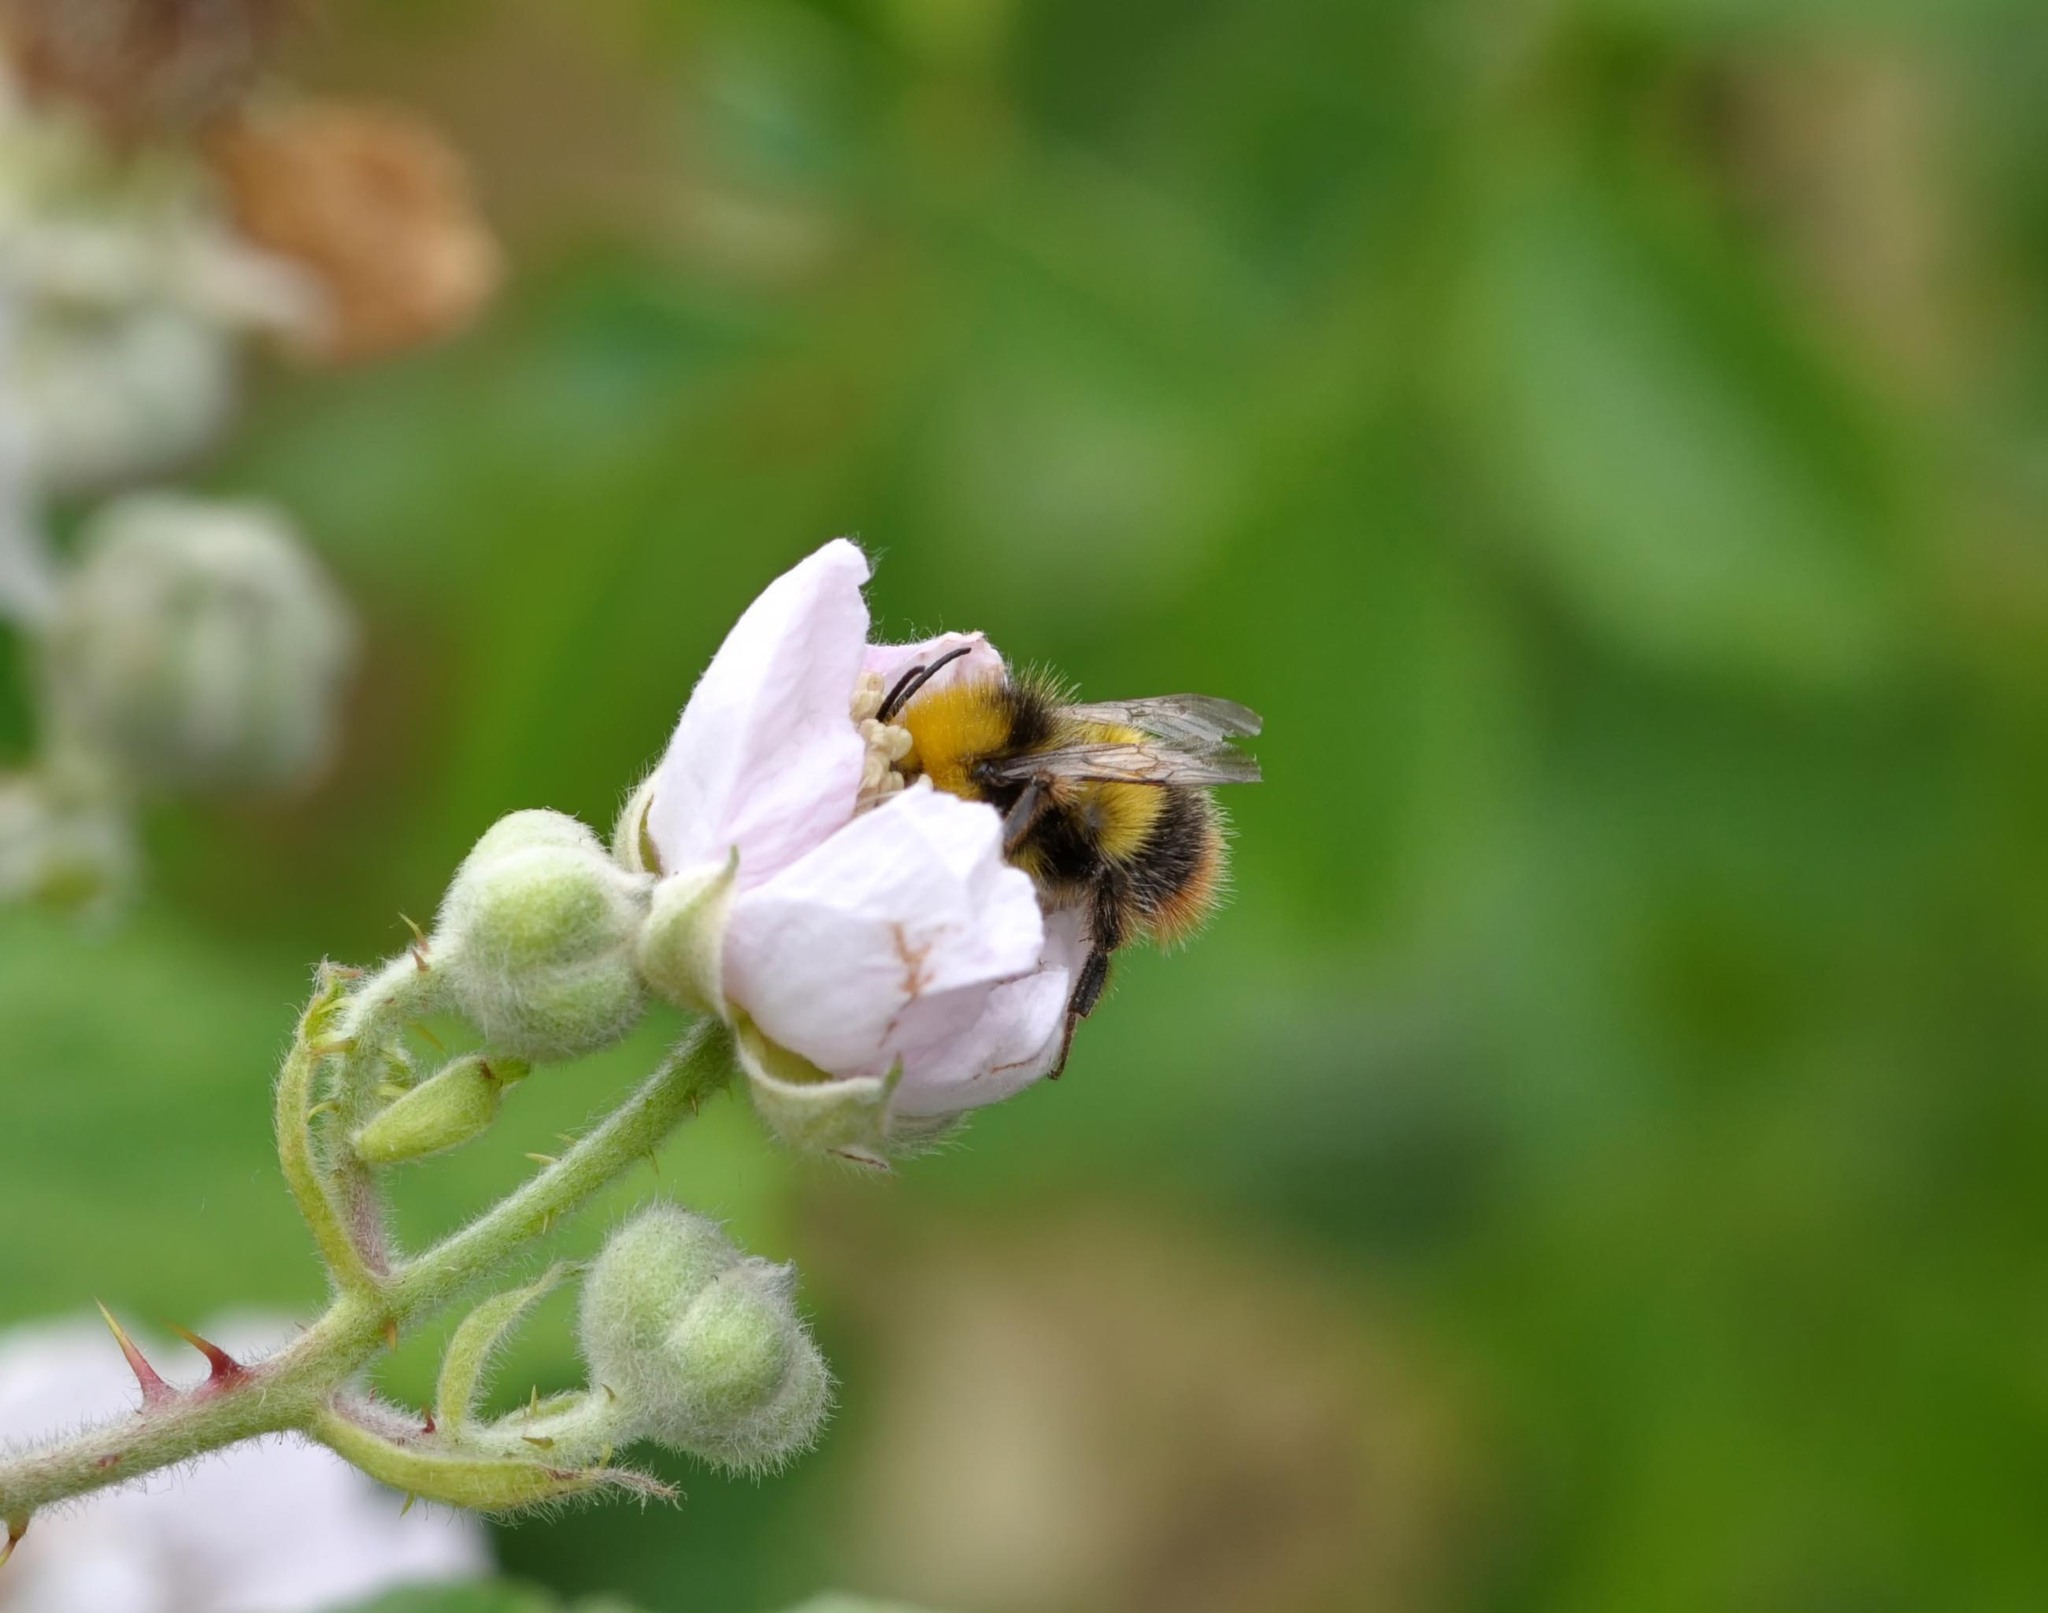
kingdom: Animalia
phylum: Arthropoda
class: Insecta
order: Hymenoptera
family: Apidae
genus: Bombus
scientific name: Bombus pratorum
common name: Early humble-bee
